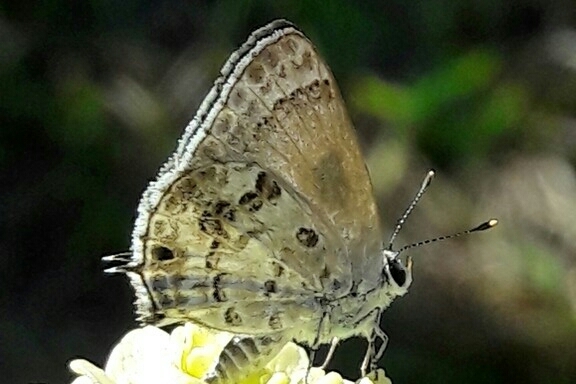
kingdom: Animalia
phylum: Arthropoda
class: Insecta
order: Lepidoptera
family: Lycaenidae
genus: Strymon
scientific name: Strymon astiocha
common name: Gray-spotted scrub-hairstreak
